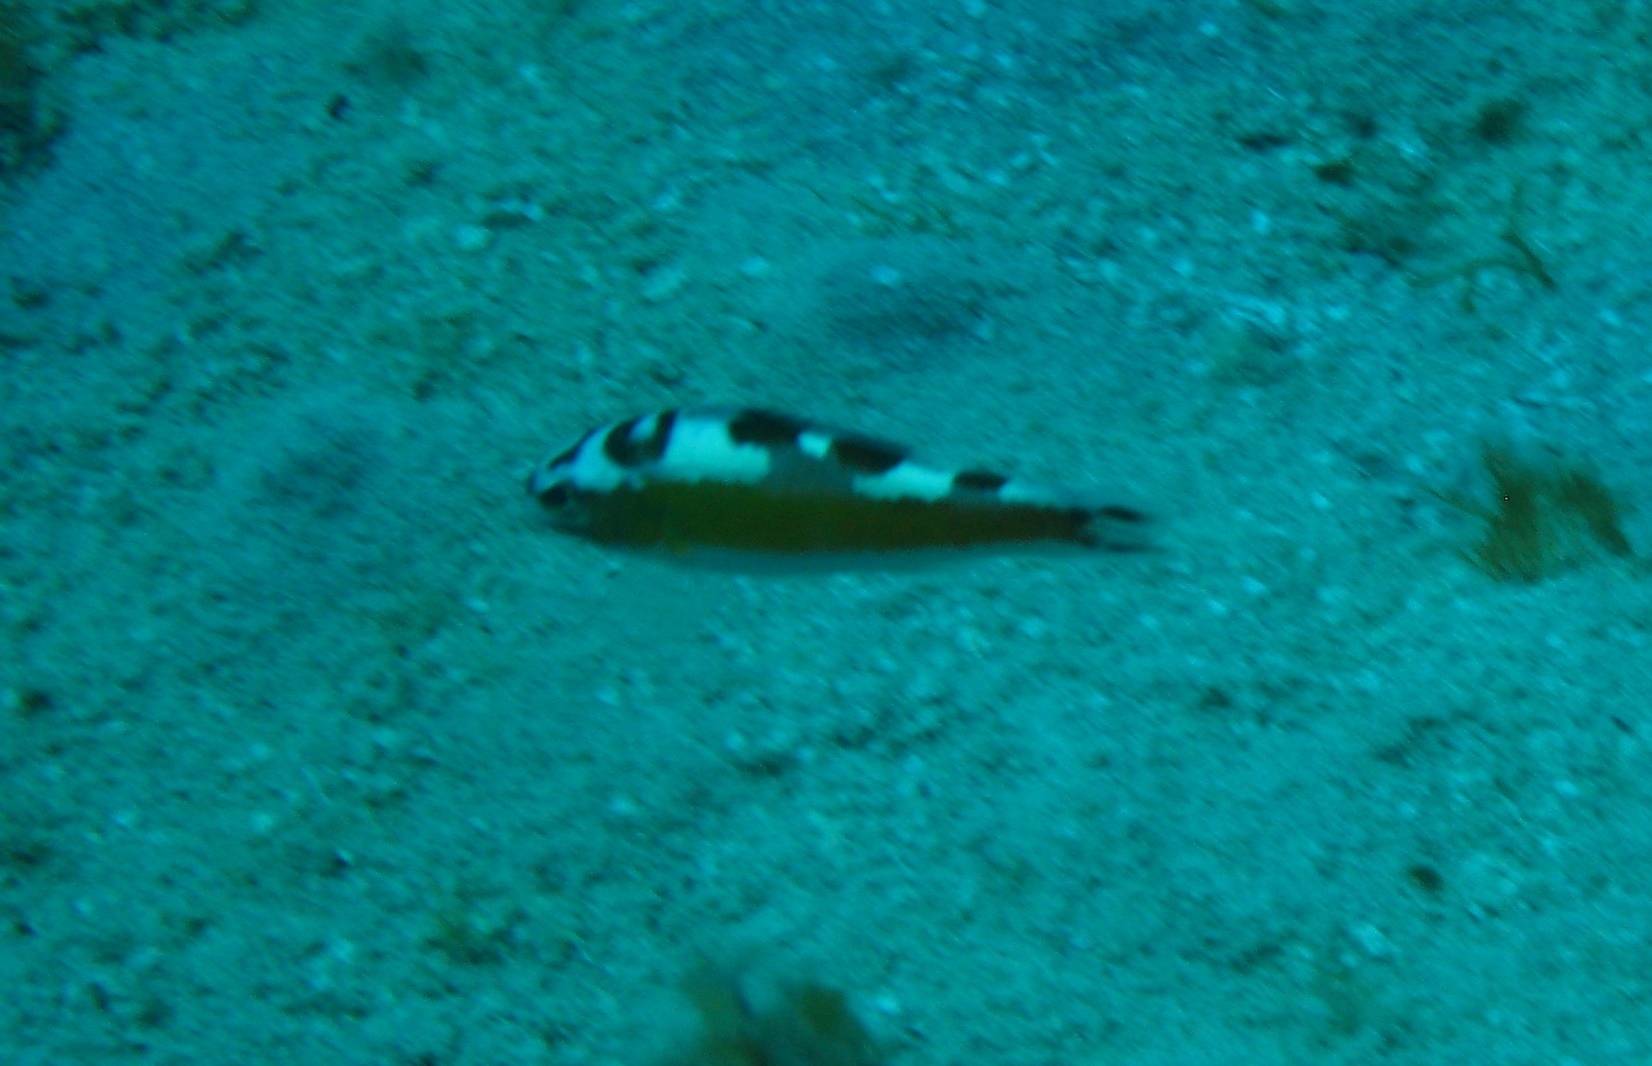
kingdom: Animalia
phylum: Chordata
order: Perciformes
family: Serranidae
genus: Serranus
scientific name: Serranus tabacarius
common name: Tobaccofish
